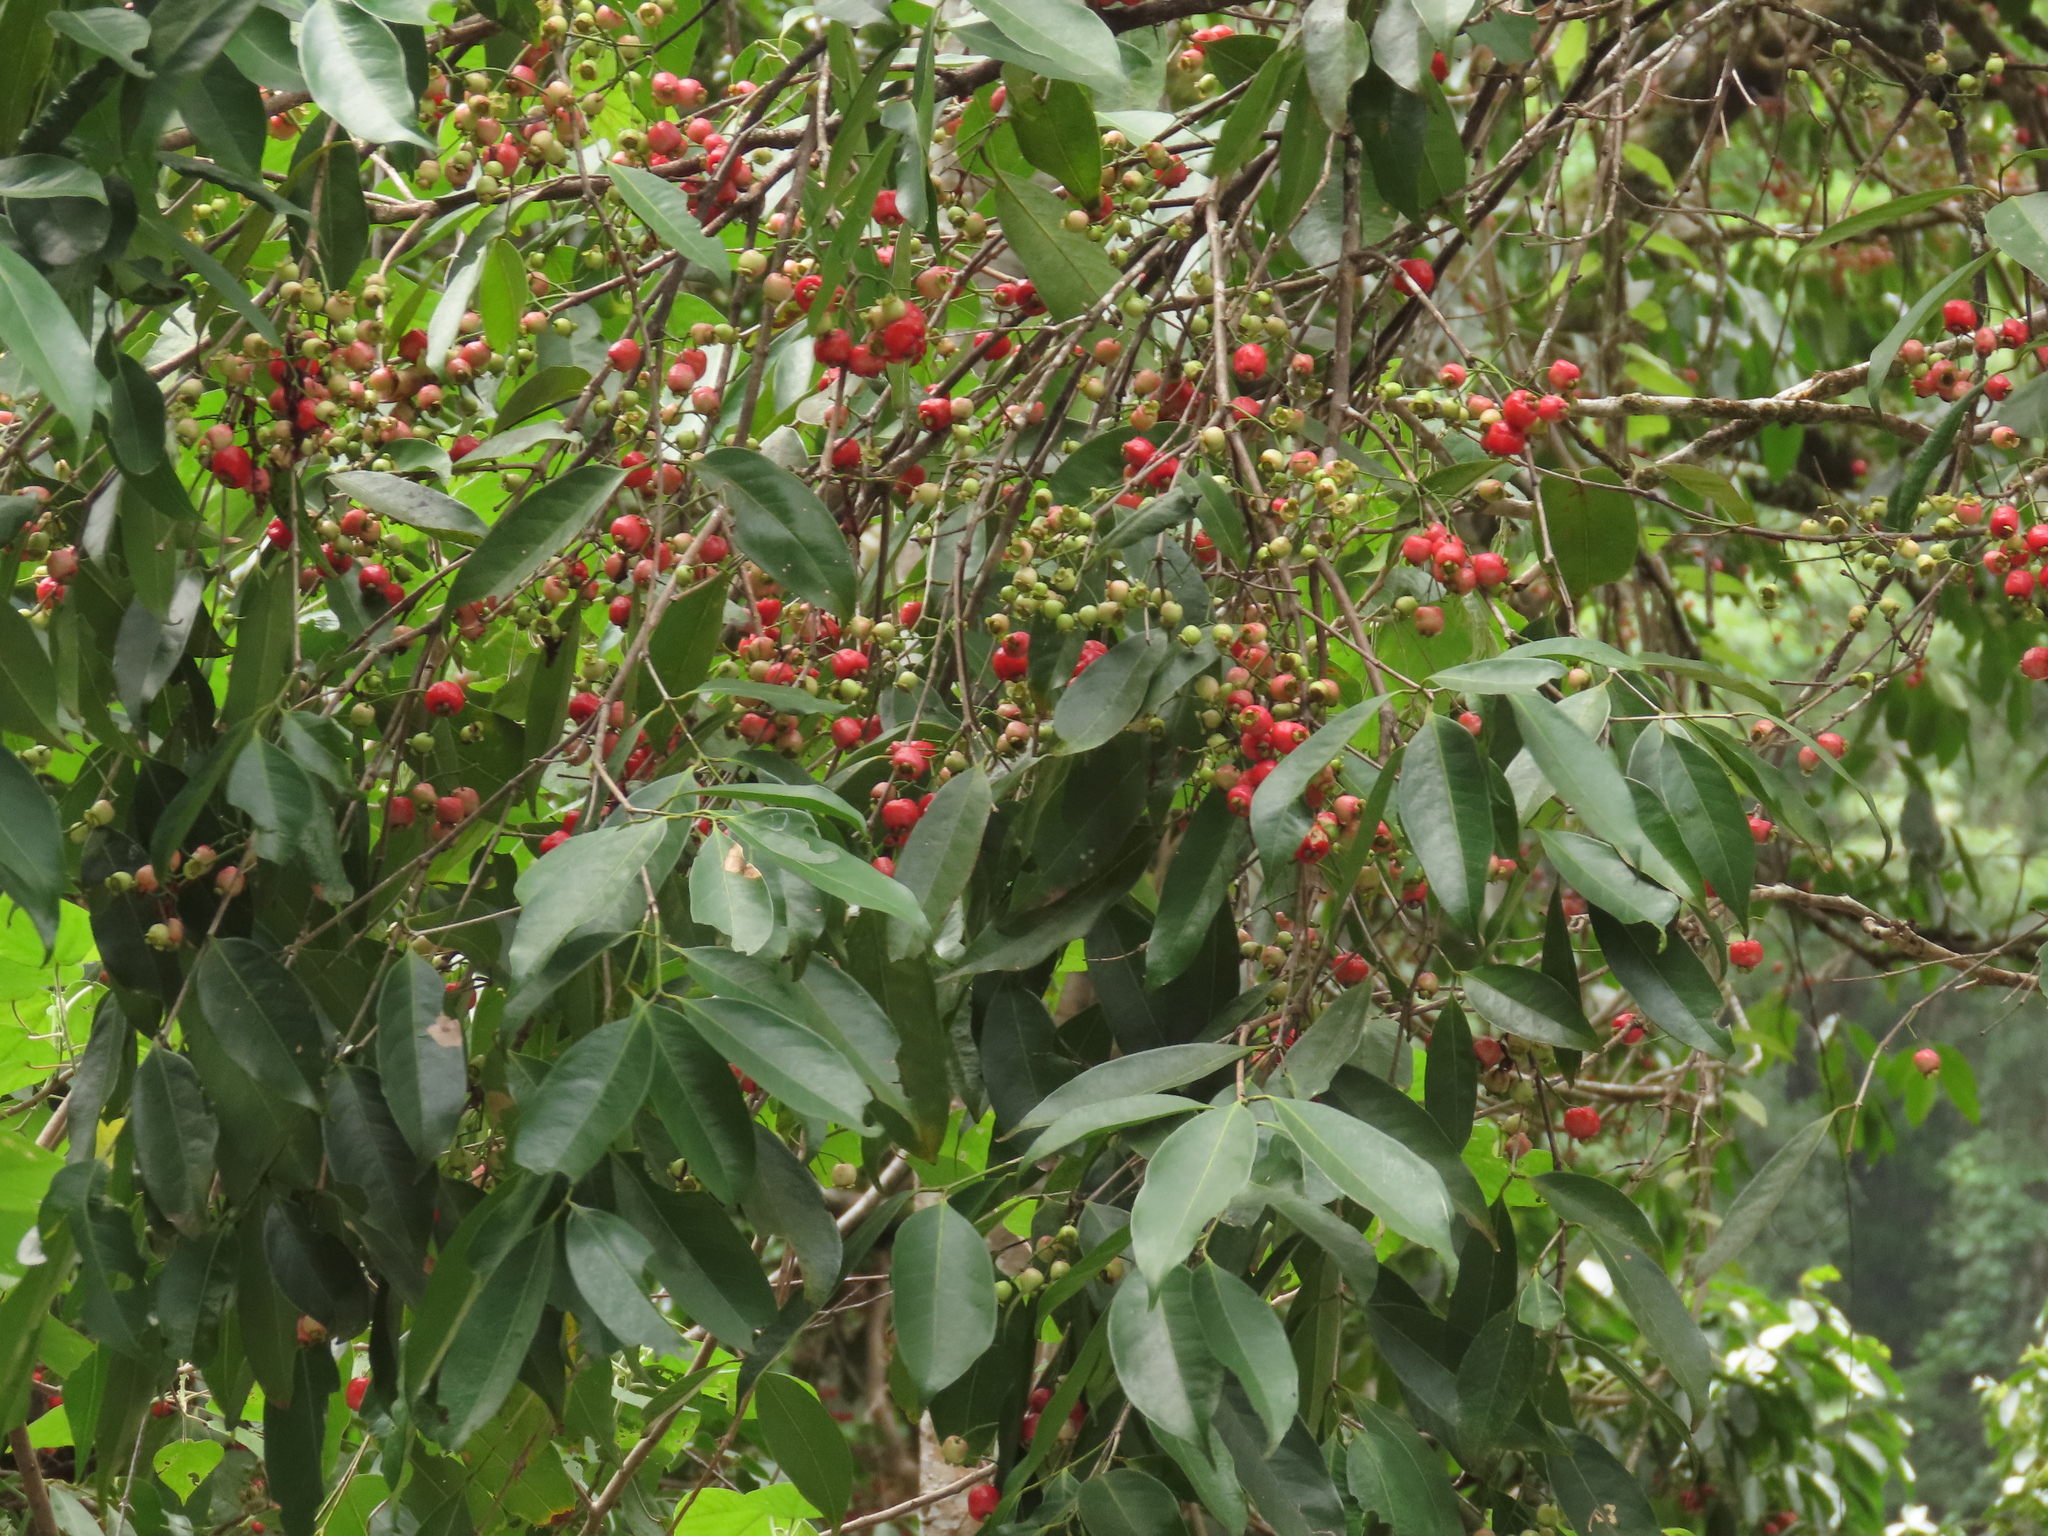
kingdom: Plantae
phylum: Tracheophyta
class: Magnoliopsida
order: Myrtales
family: Myrtaceae
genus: Syzygium
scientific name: Syzygium tierneyanum
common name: River-cherry
